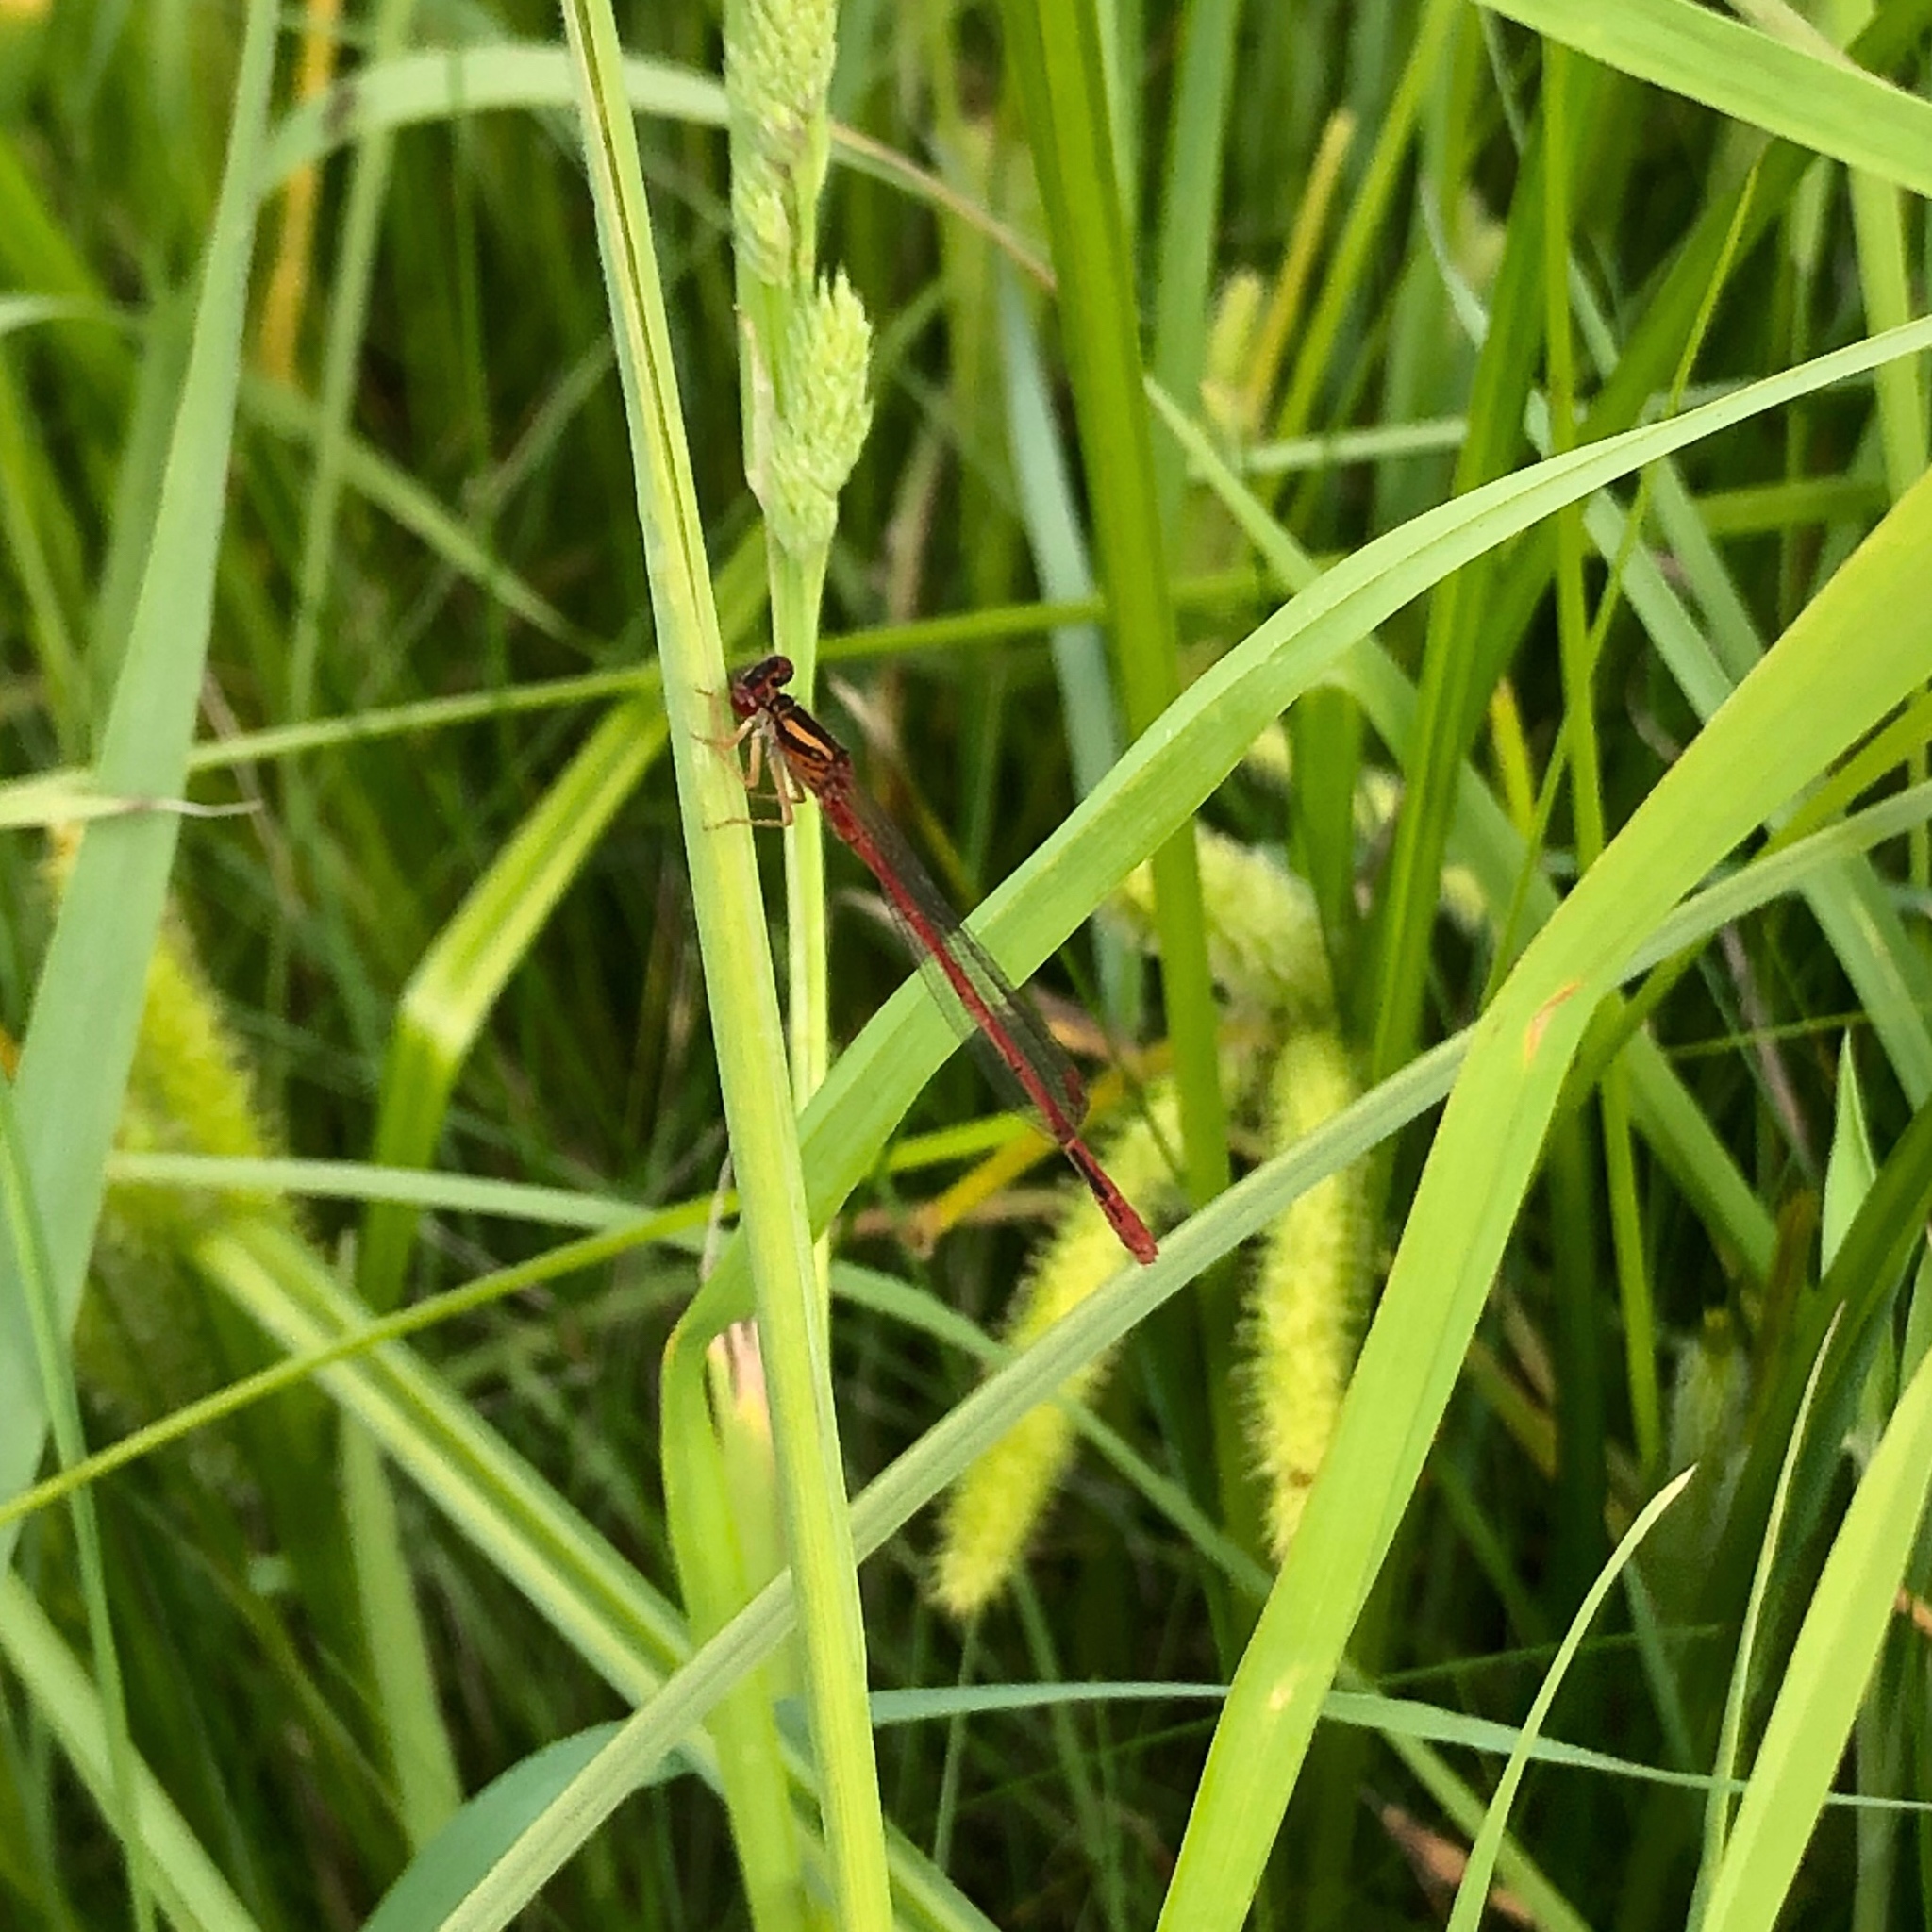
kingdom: Animalia
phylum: Arthropoda
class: Insecta
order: Odonata
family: Coenagrionidae
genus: Xanthocnemis
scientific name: Xanthocnemis zealandica
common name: Common redcoat damselfly
